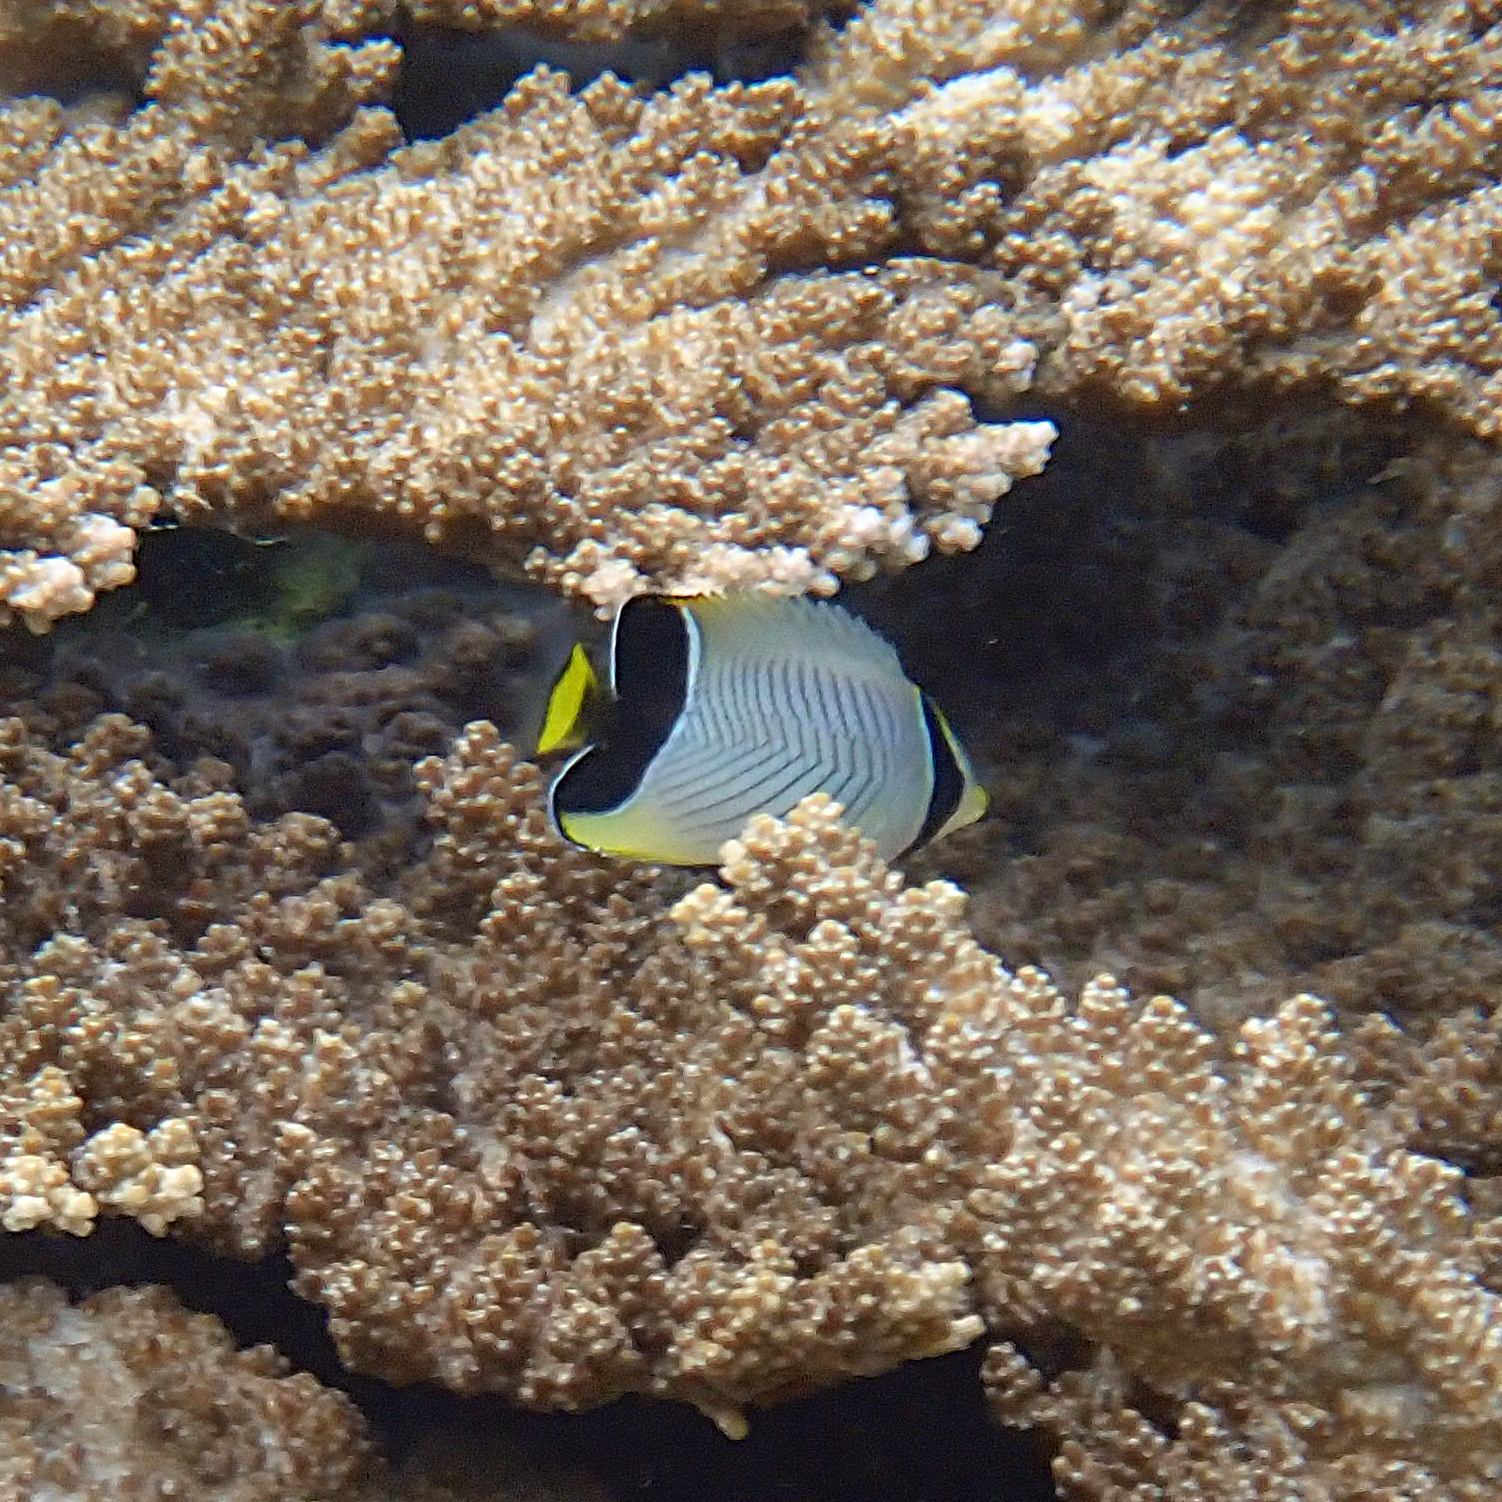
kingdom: Animalia
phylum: Chordata
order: Perciformes
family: Chaetodontidae
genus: Chaetodon
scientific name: Chaetodon trifascialis
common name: Chevroned butterflyfish
